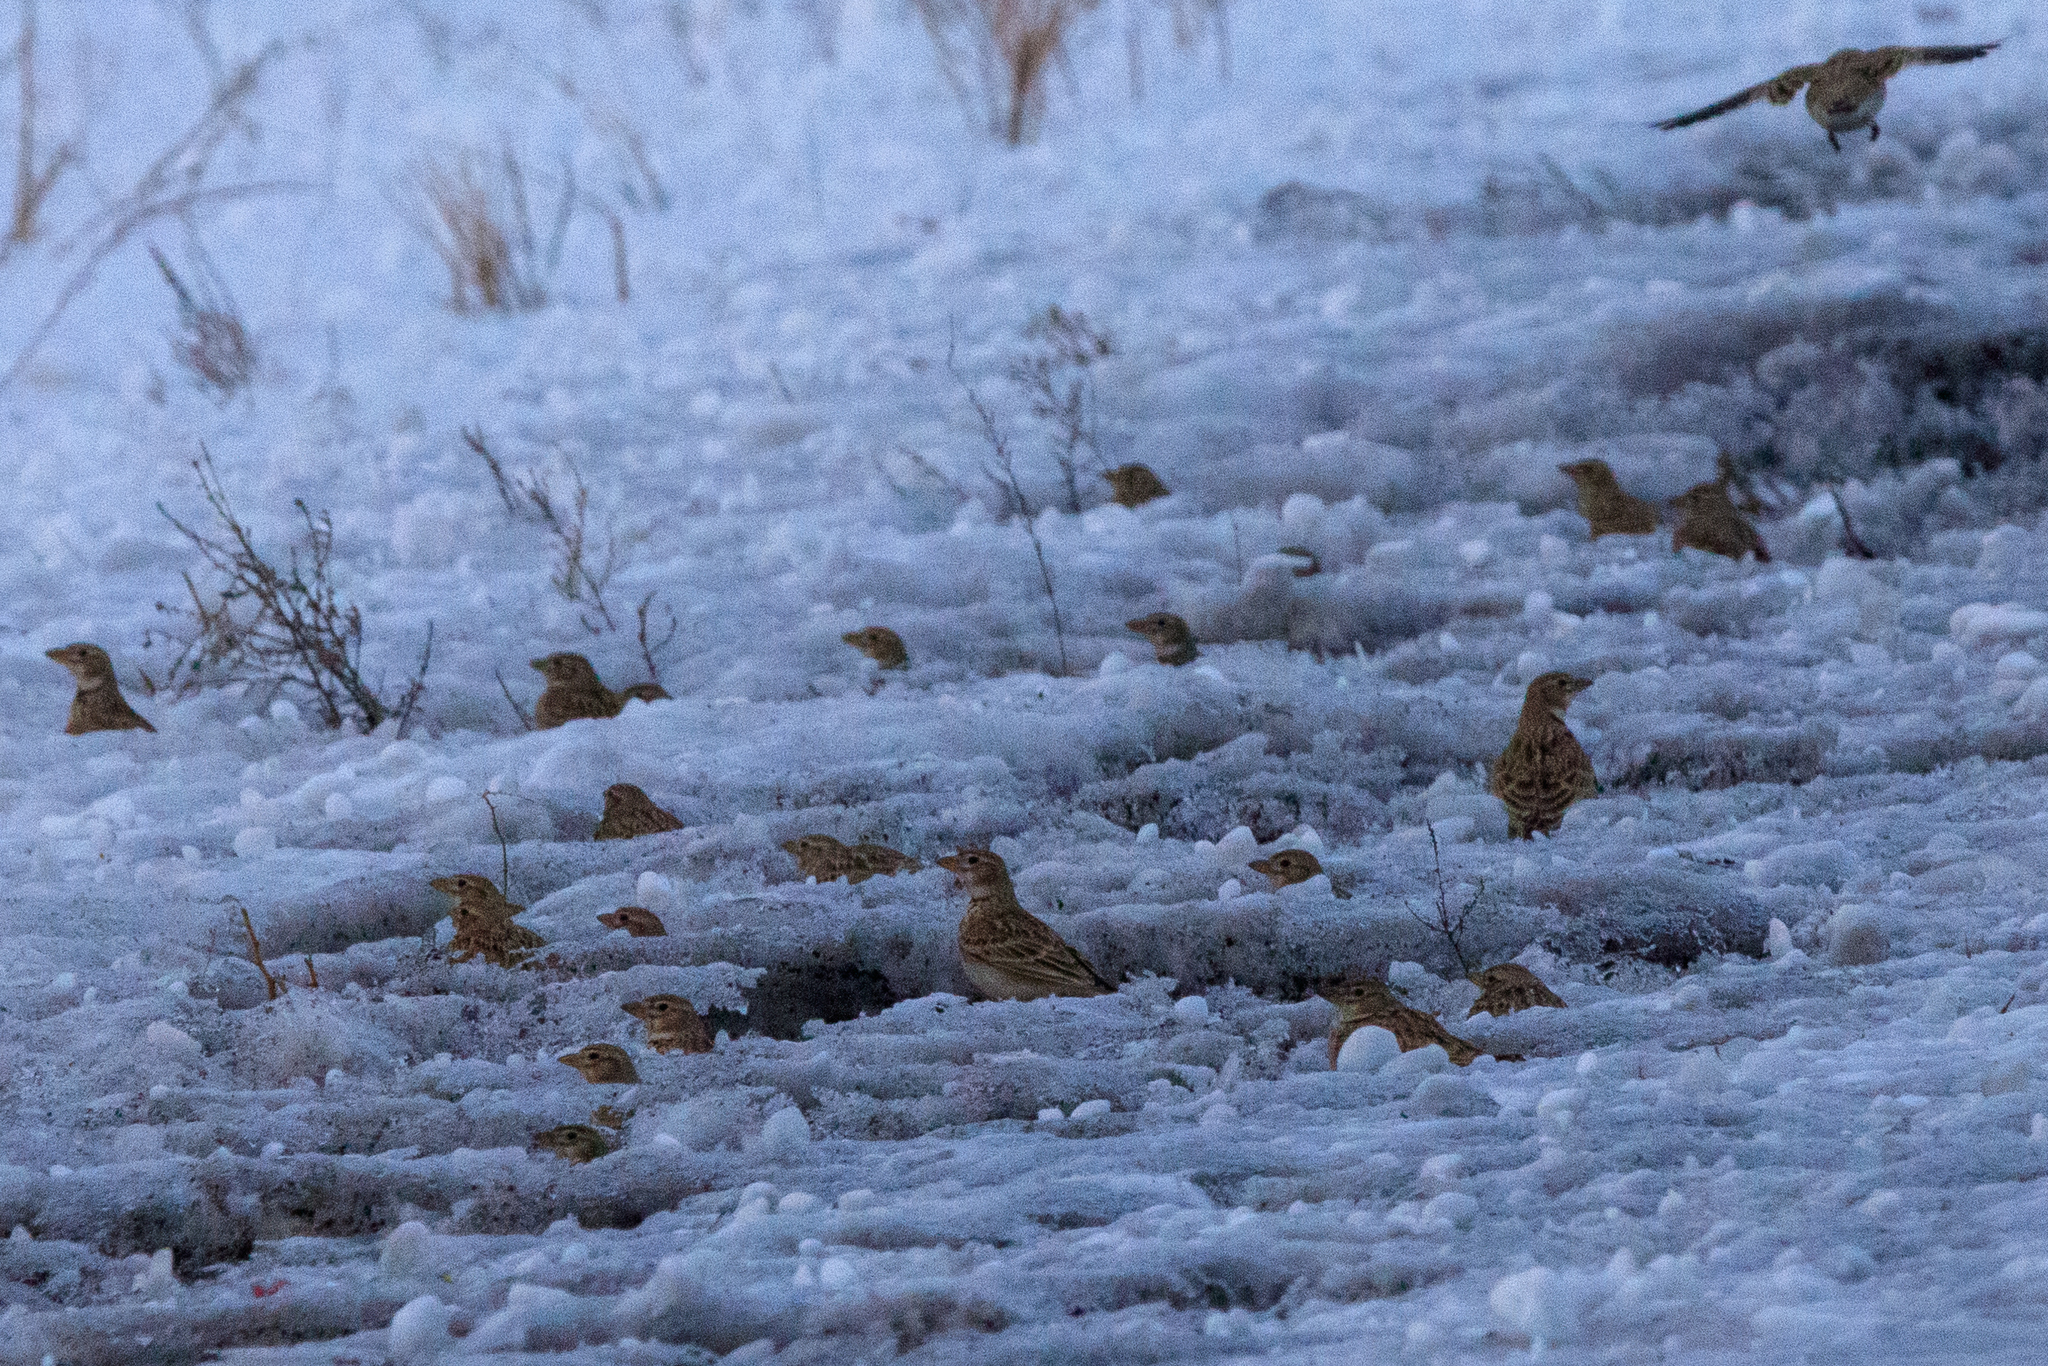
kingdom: Animalia
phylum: Chordata
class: Aves
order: Passeriformes
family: Alaudidae
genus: Melanocorypha
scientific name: Melanocorypha calandra
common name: Calandra lark
